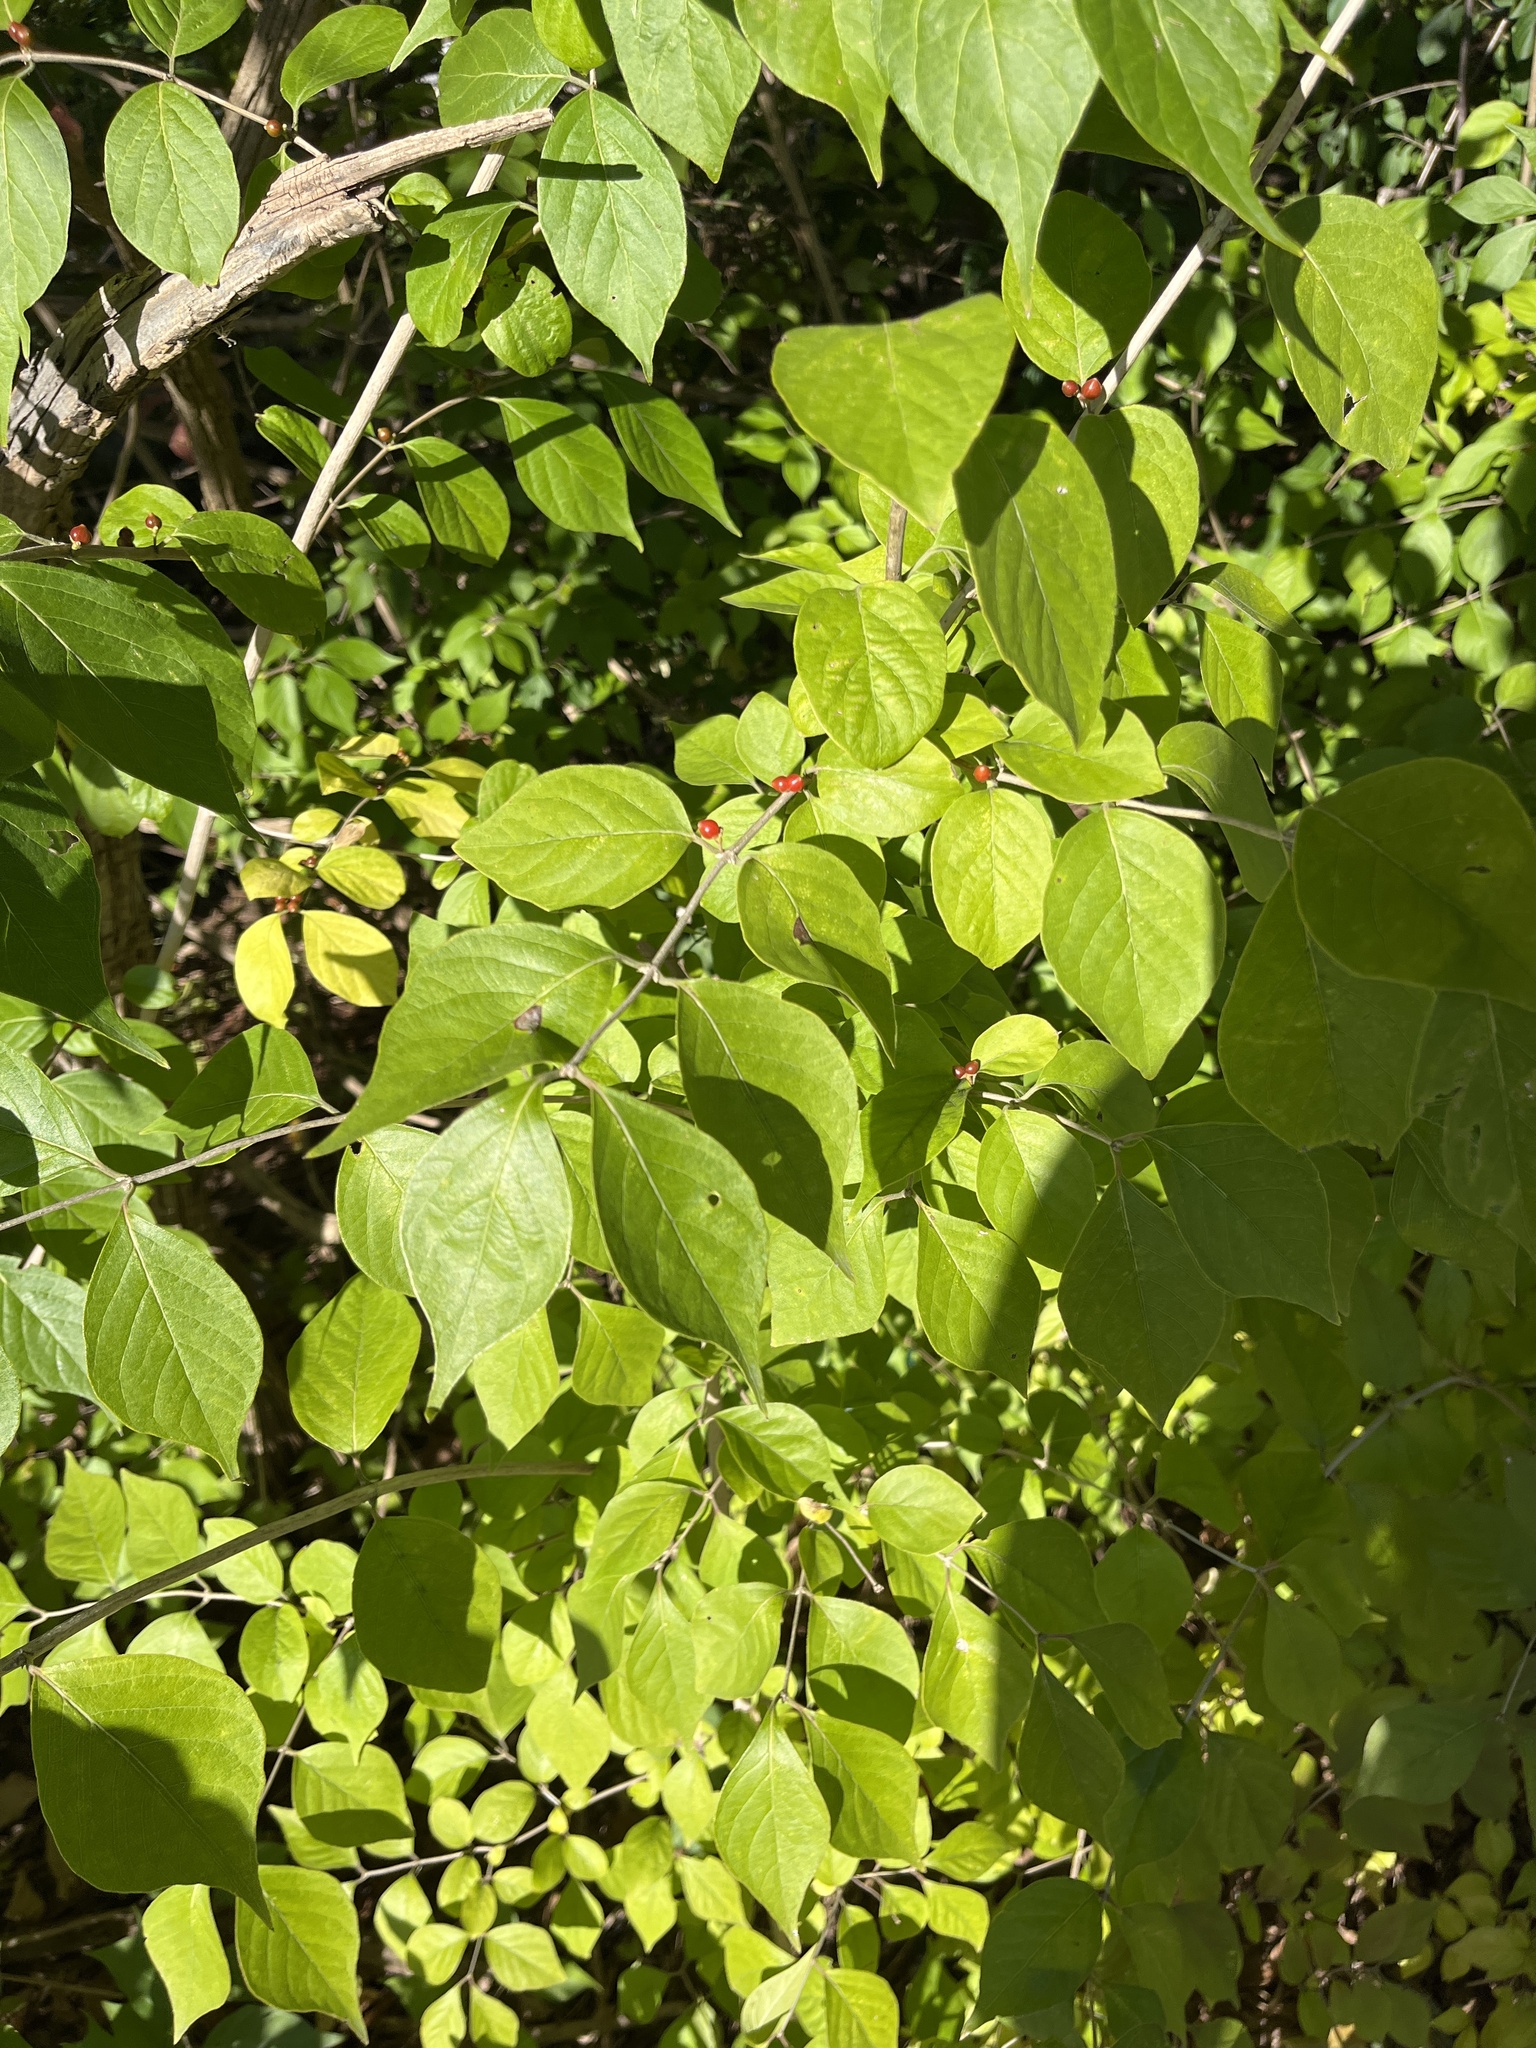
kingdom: Plantae
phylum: Tracheophyta
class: Magnoliopsida
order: Dipsacales
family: Caprifoliaceae
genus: Lonicera
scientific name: Lonicera maackii
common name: Amur honeysuckle
